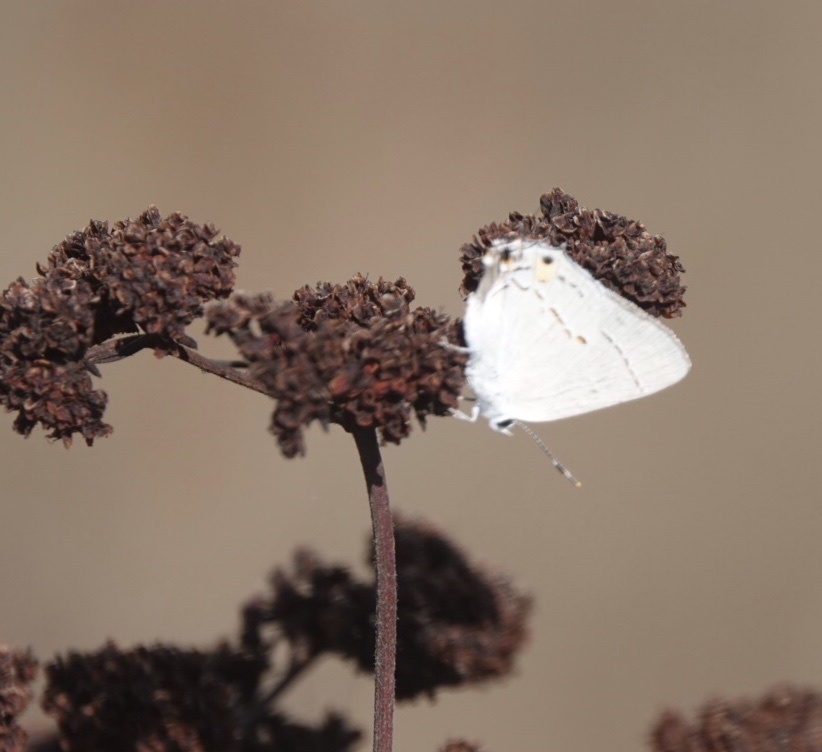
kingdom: Animalia
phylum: Arthropoda
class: Insecta
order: Lepidoptera
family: Lycaenidae
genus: Strymon
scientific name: Strymon melinus
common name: Gray hairstreak
